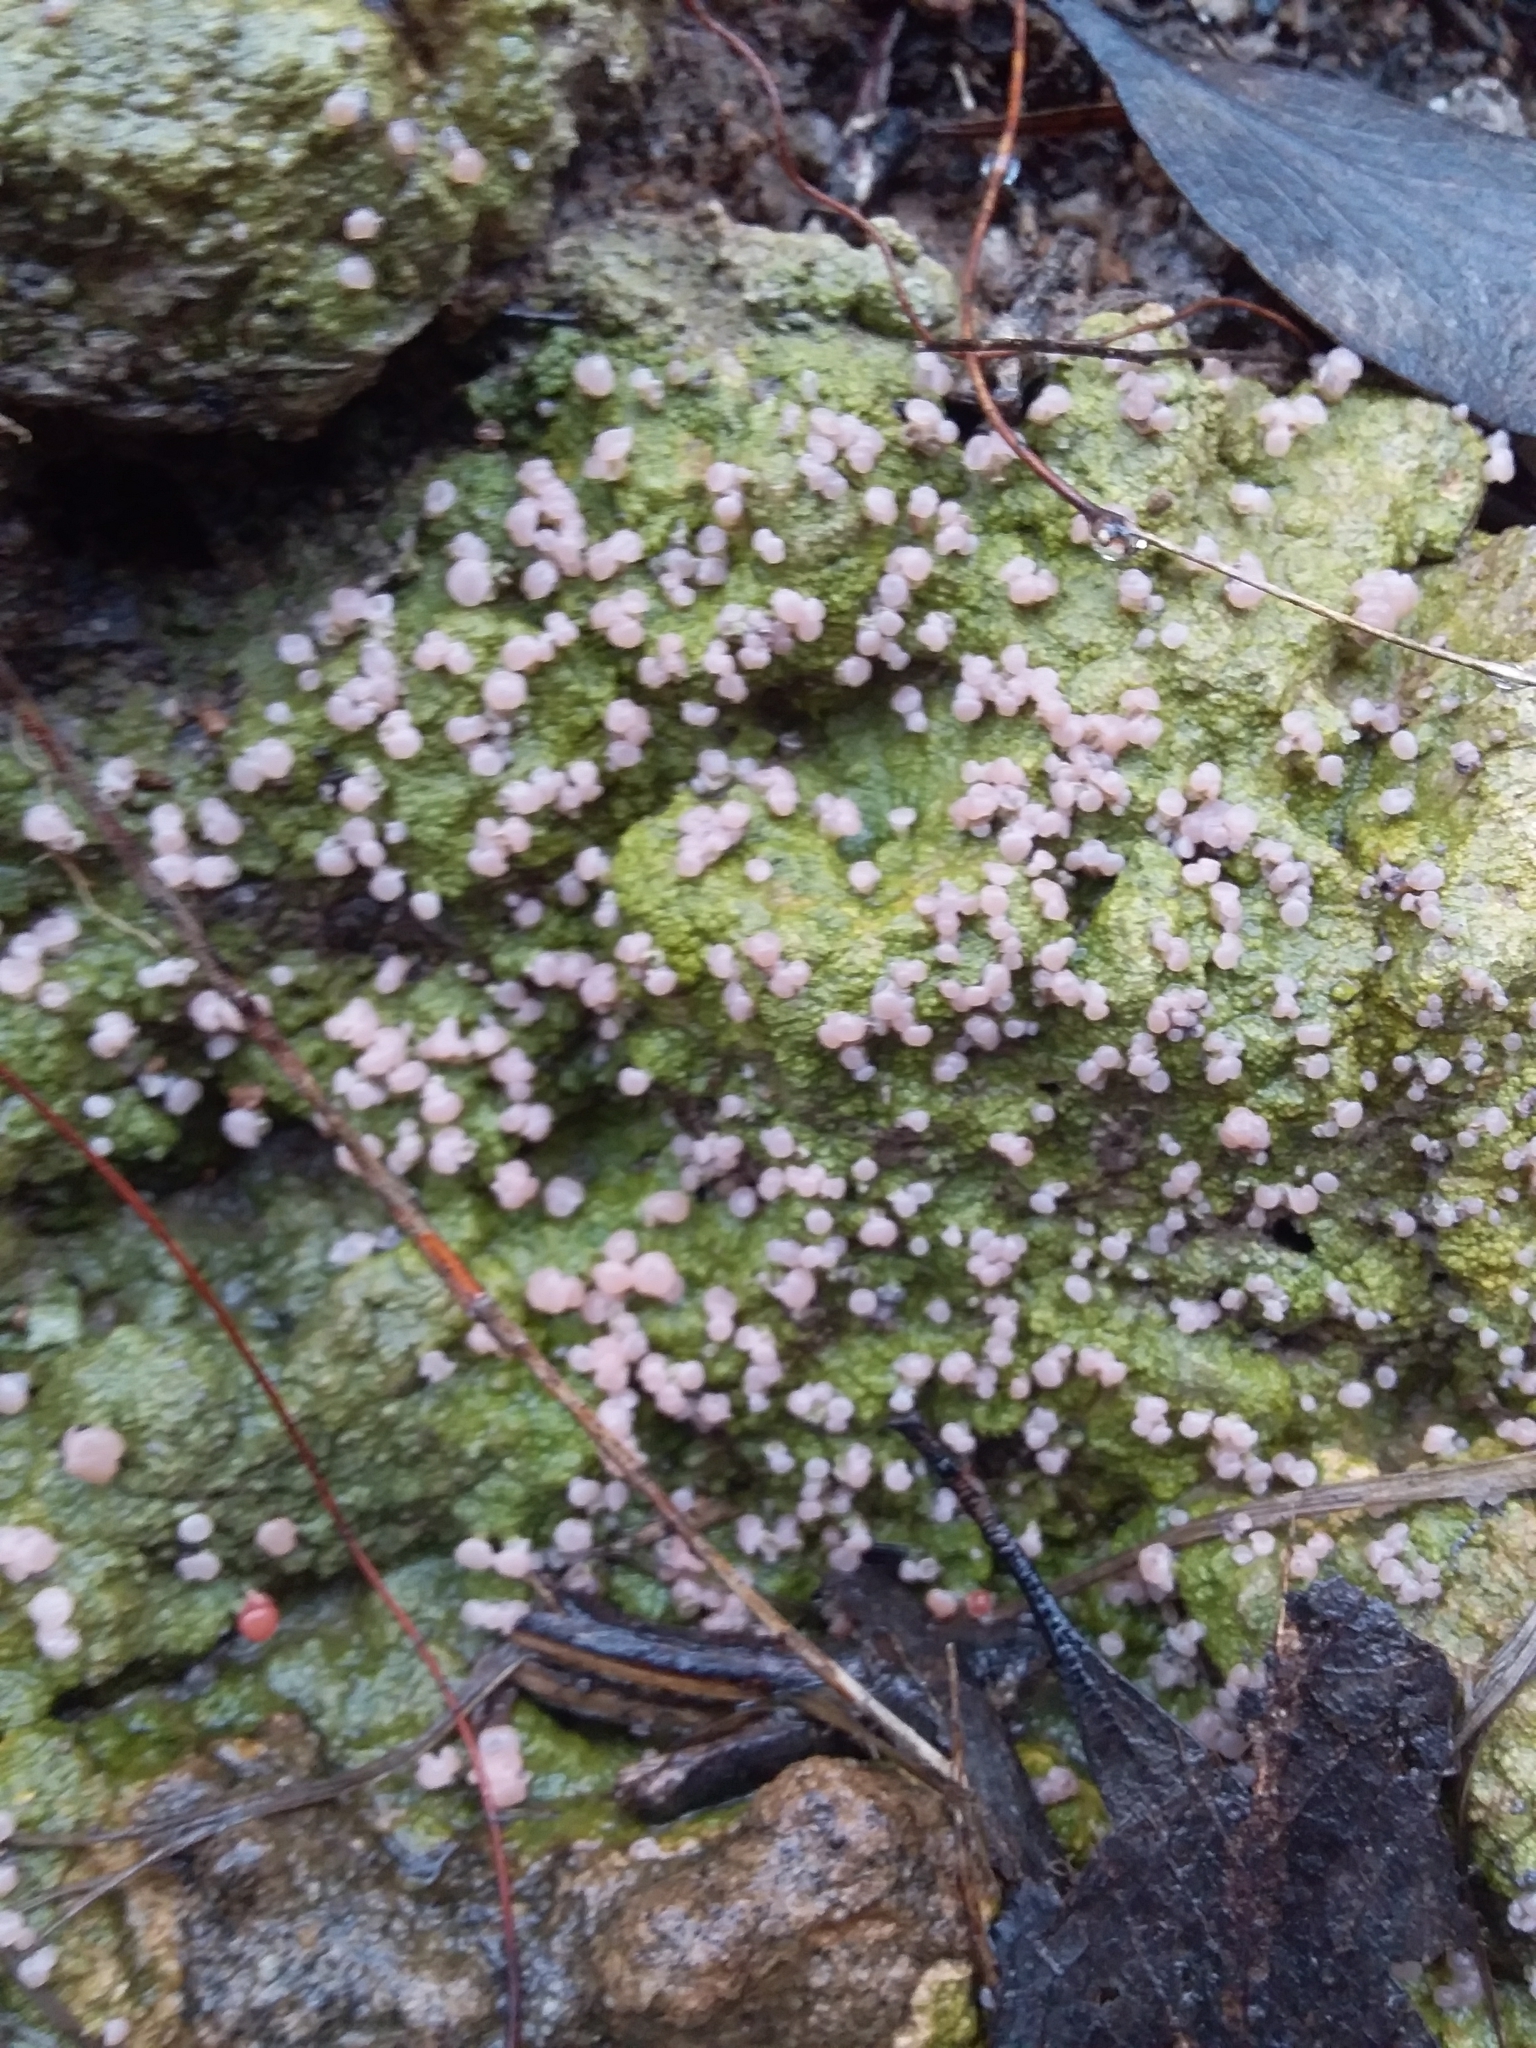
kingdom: Fungi
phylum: Ascomycota
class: Lecanoromycetes
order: Baeomycetales
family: Baeomycetaceae
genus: Baeomyces
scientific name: Baeomyces heteromorphus
